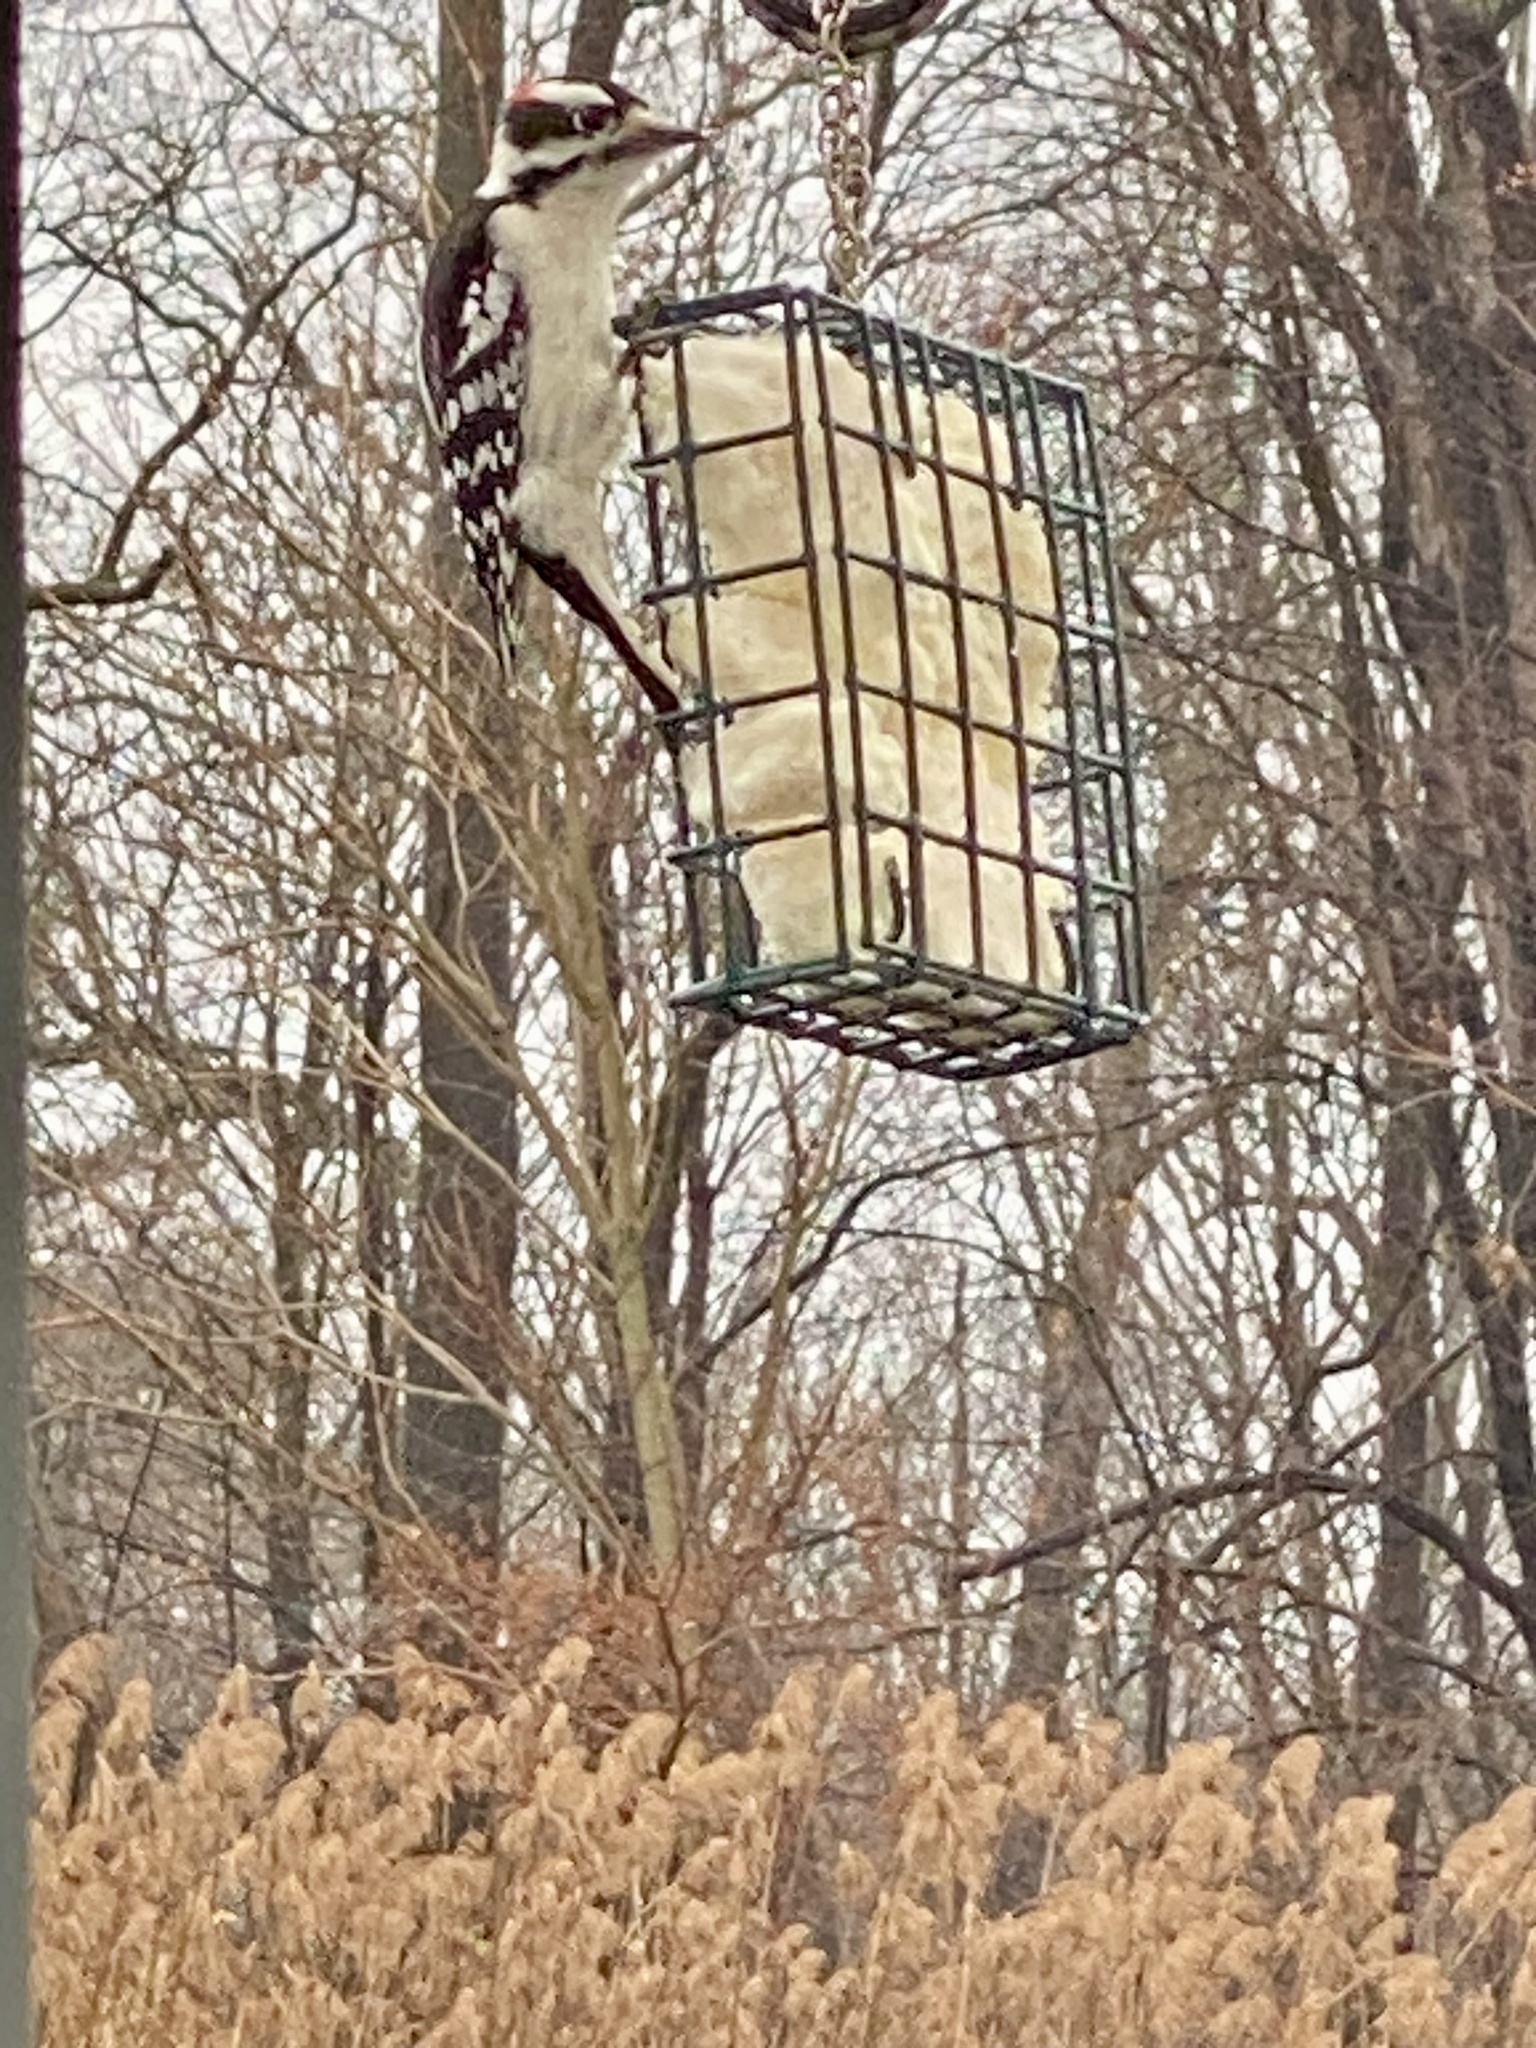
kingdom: Animalia
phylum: Chordata
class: Aves
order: Piciformes
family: Picidae
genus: Dryobates
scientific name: Dryobates pubescens
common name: Downy woodpecker
